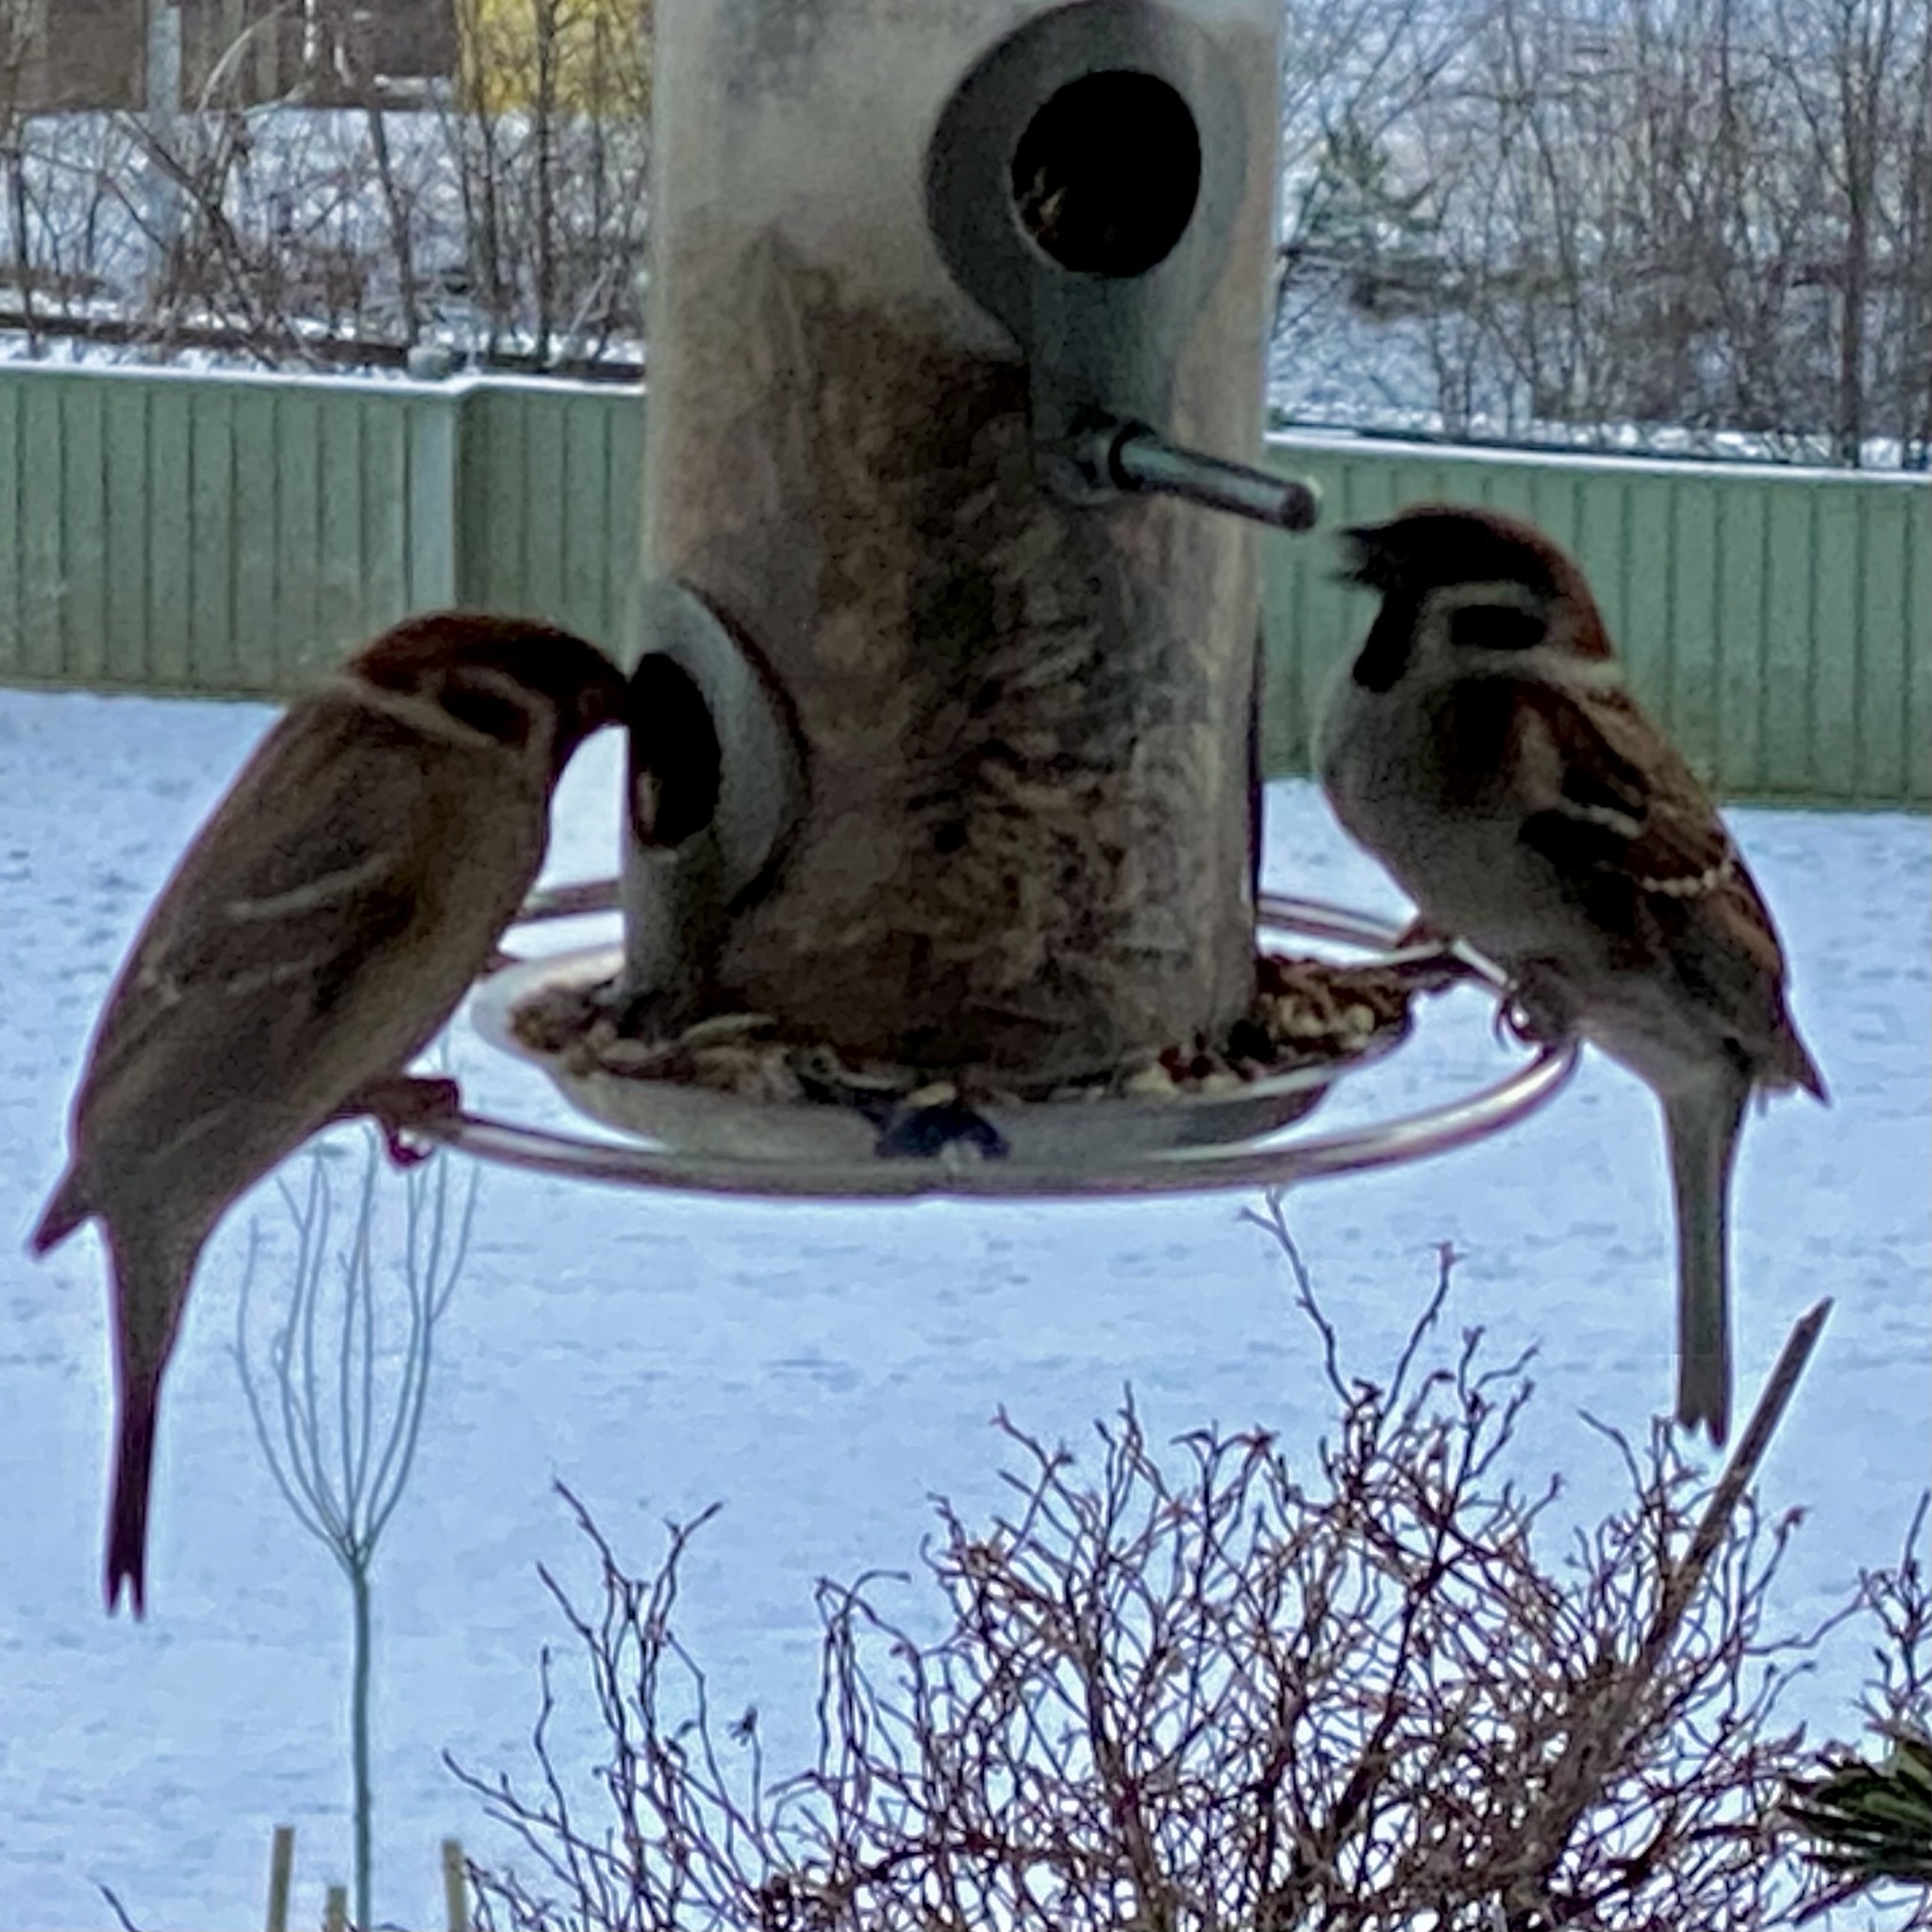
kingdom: Animalia
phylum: Chordata
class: Aves
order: Passeriformes
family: Passeridae
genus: Passer
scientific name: Passer montanus
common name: Eurasian tree sparrow
